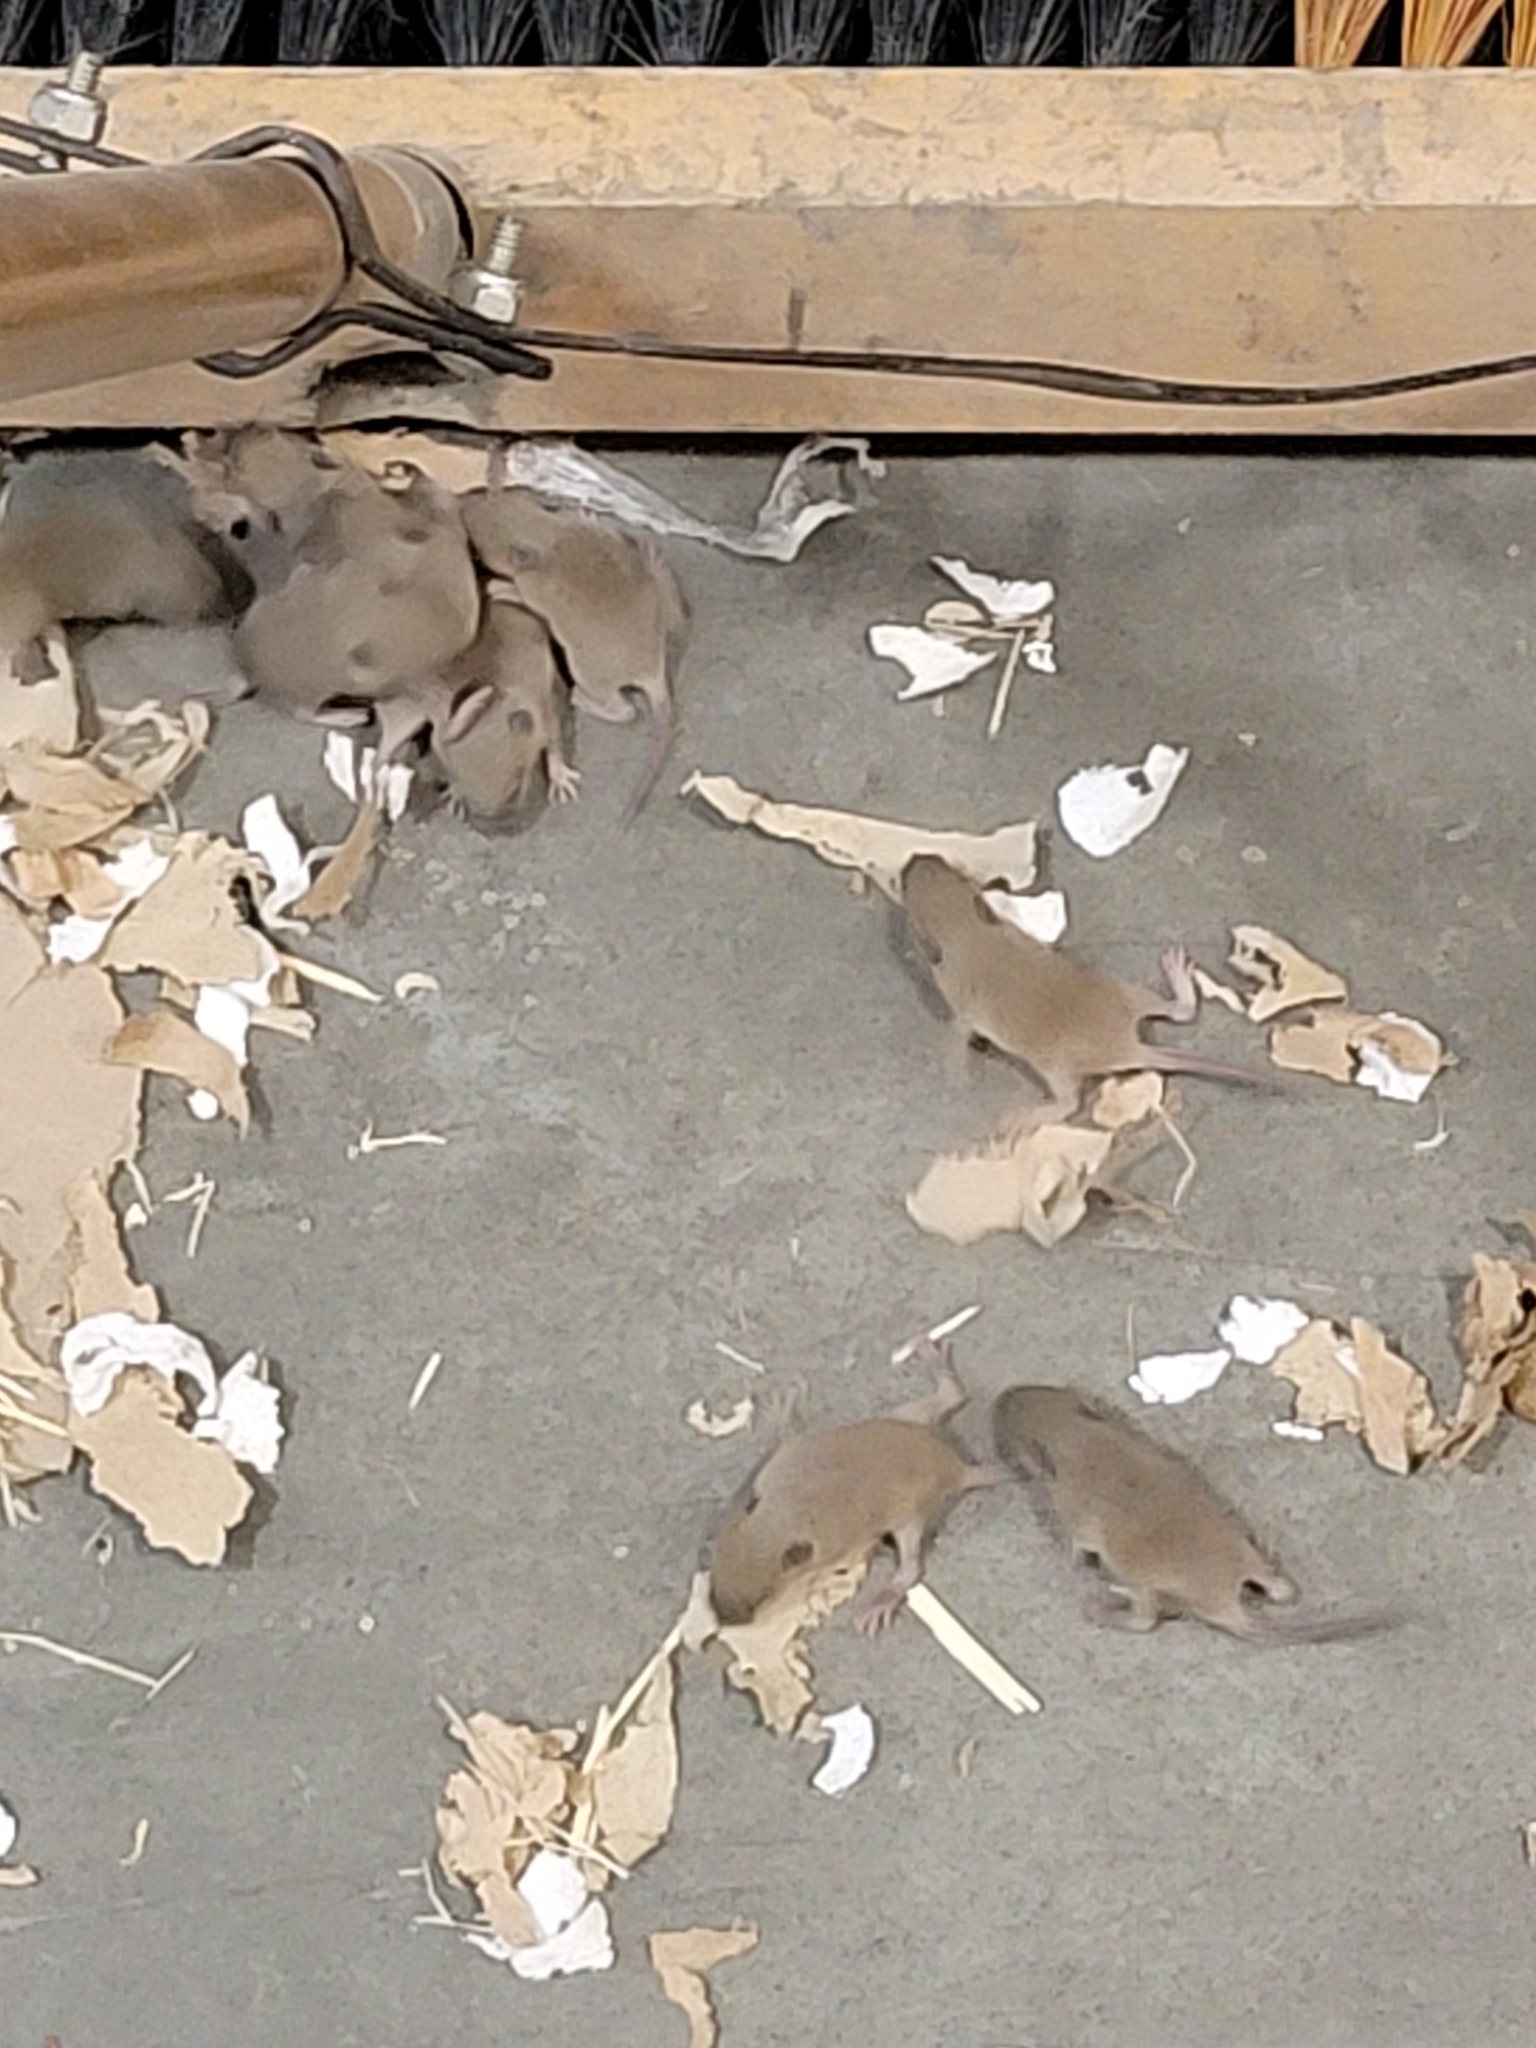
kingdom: Animalia
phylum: Chordata
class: Mammalia
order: Rodentia
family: Muridae
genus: Mus
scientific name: Mus musculus
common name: House mouse
